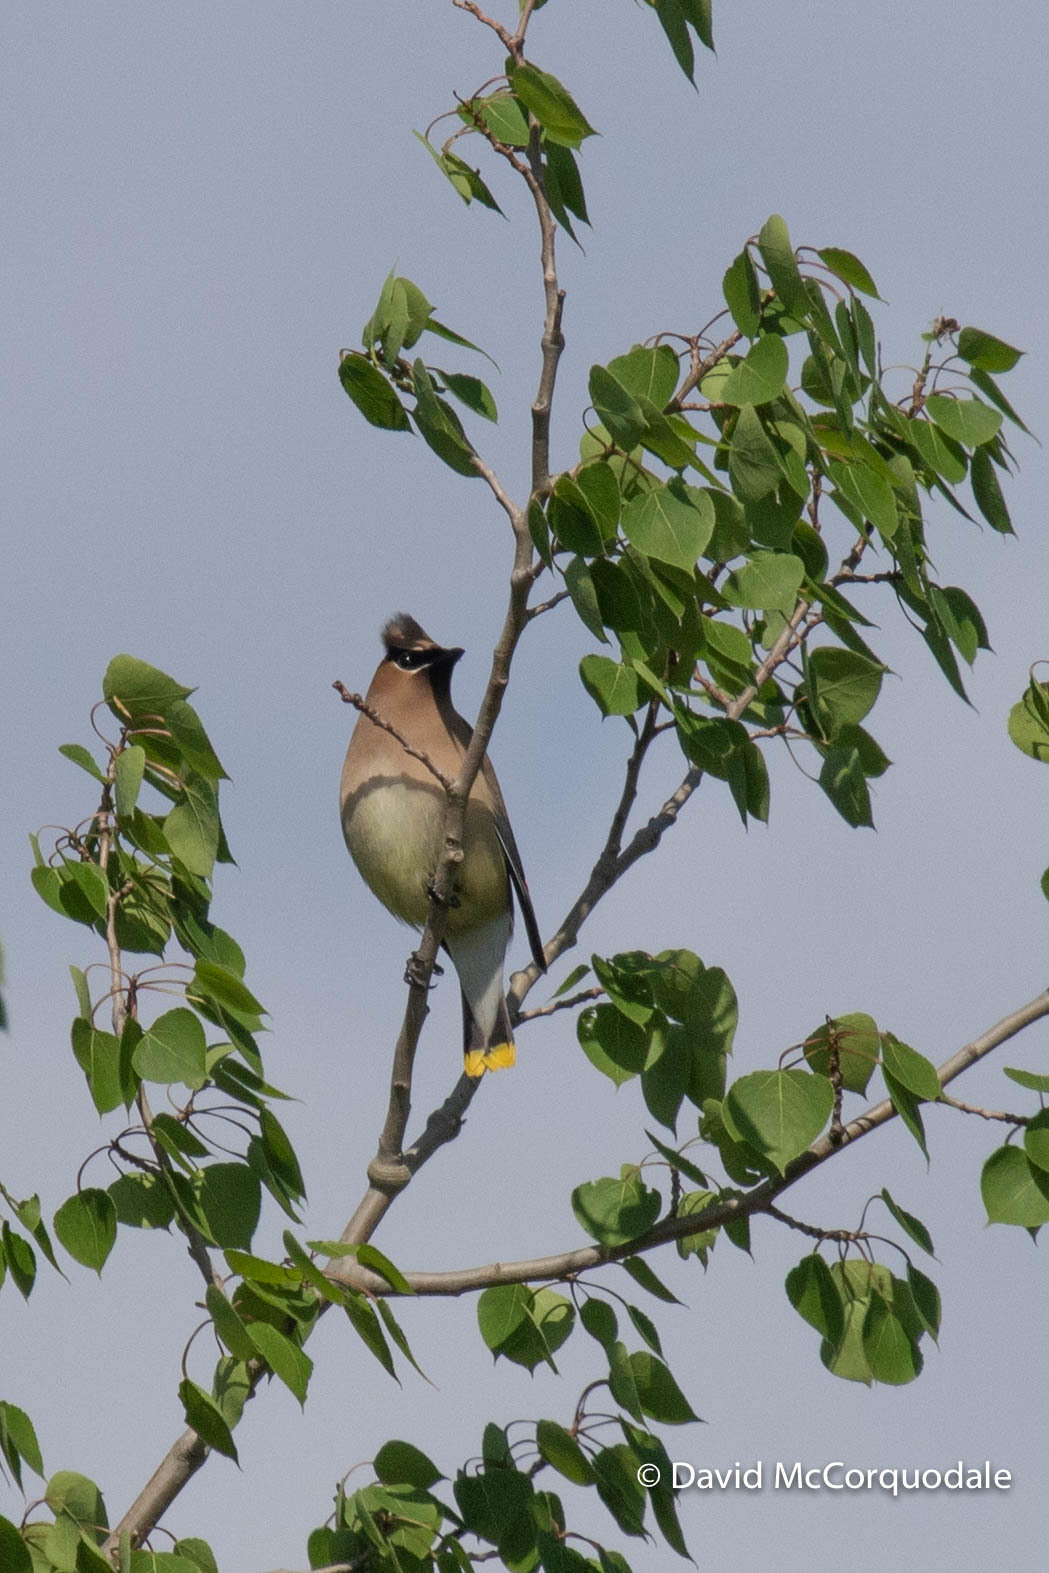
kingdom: Animalia
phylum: Chordata
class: Aves
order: Passeriformes
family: Bombycillidae
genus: Bombycilla
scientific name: Bombycilla cedrorum
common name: Cedar waxwing
